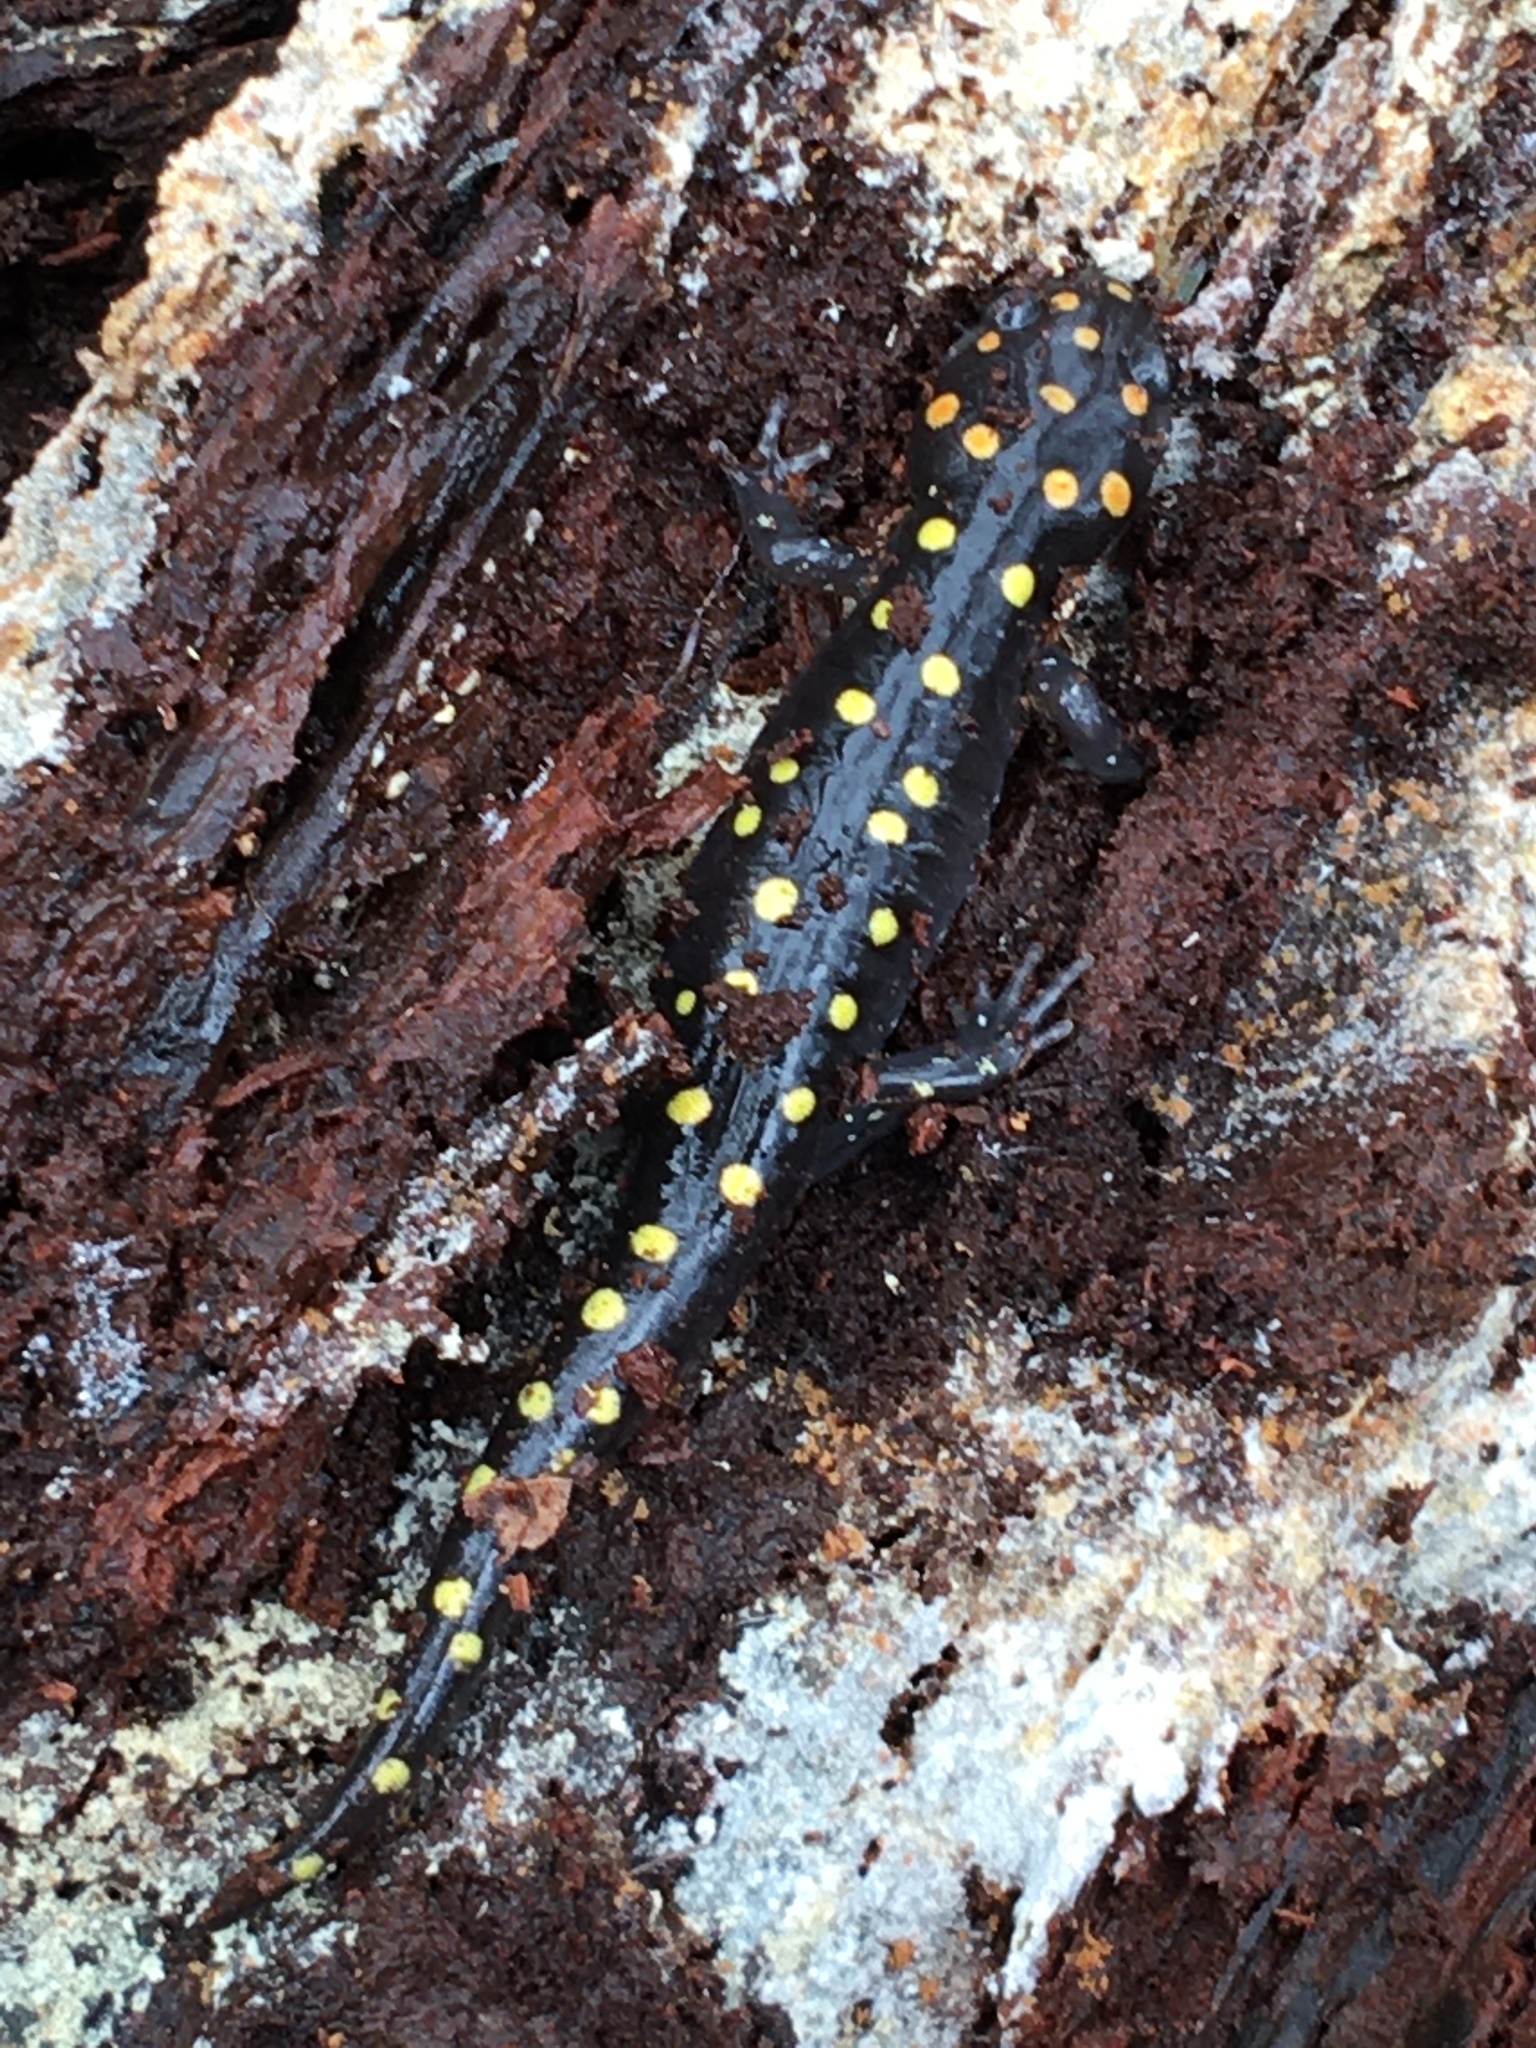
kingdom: Animalia
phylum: Chordata
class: Amphibia
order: Caudata
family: Ambystomatidae
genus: Ambystoma
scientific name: Ambystoma maculatum
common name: Spotted salamander
